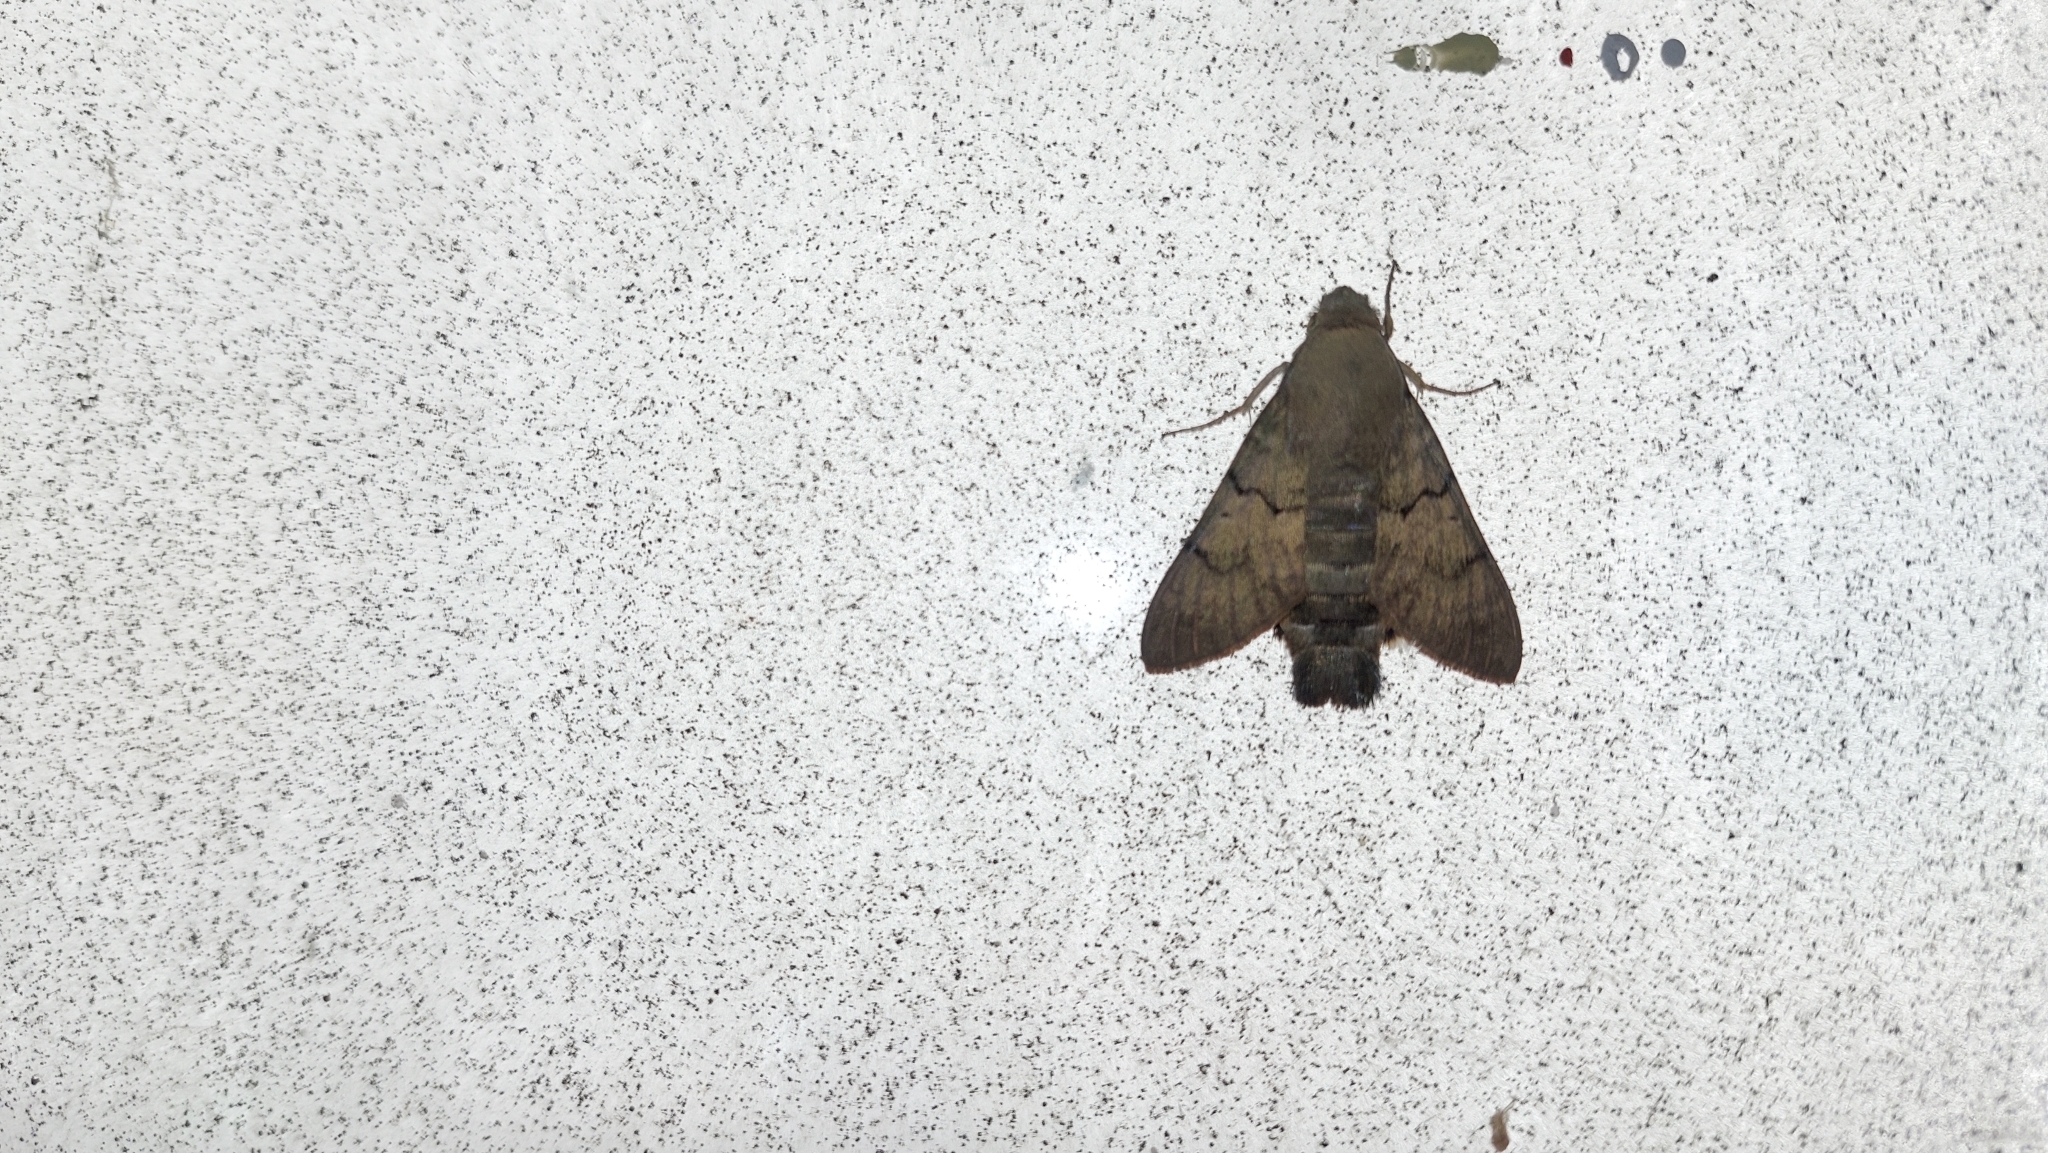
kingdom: Animalia
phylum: Arthropoda
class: Insecta
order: Lepidoptera
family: Sphingidae
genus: Macroglossum
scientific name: Macroglossum stellatarum
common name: Humming-bird hawk-moth
